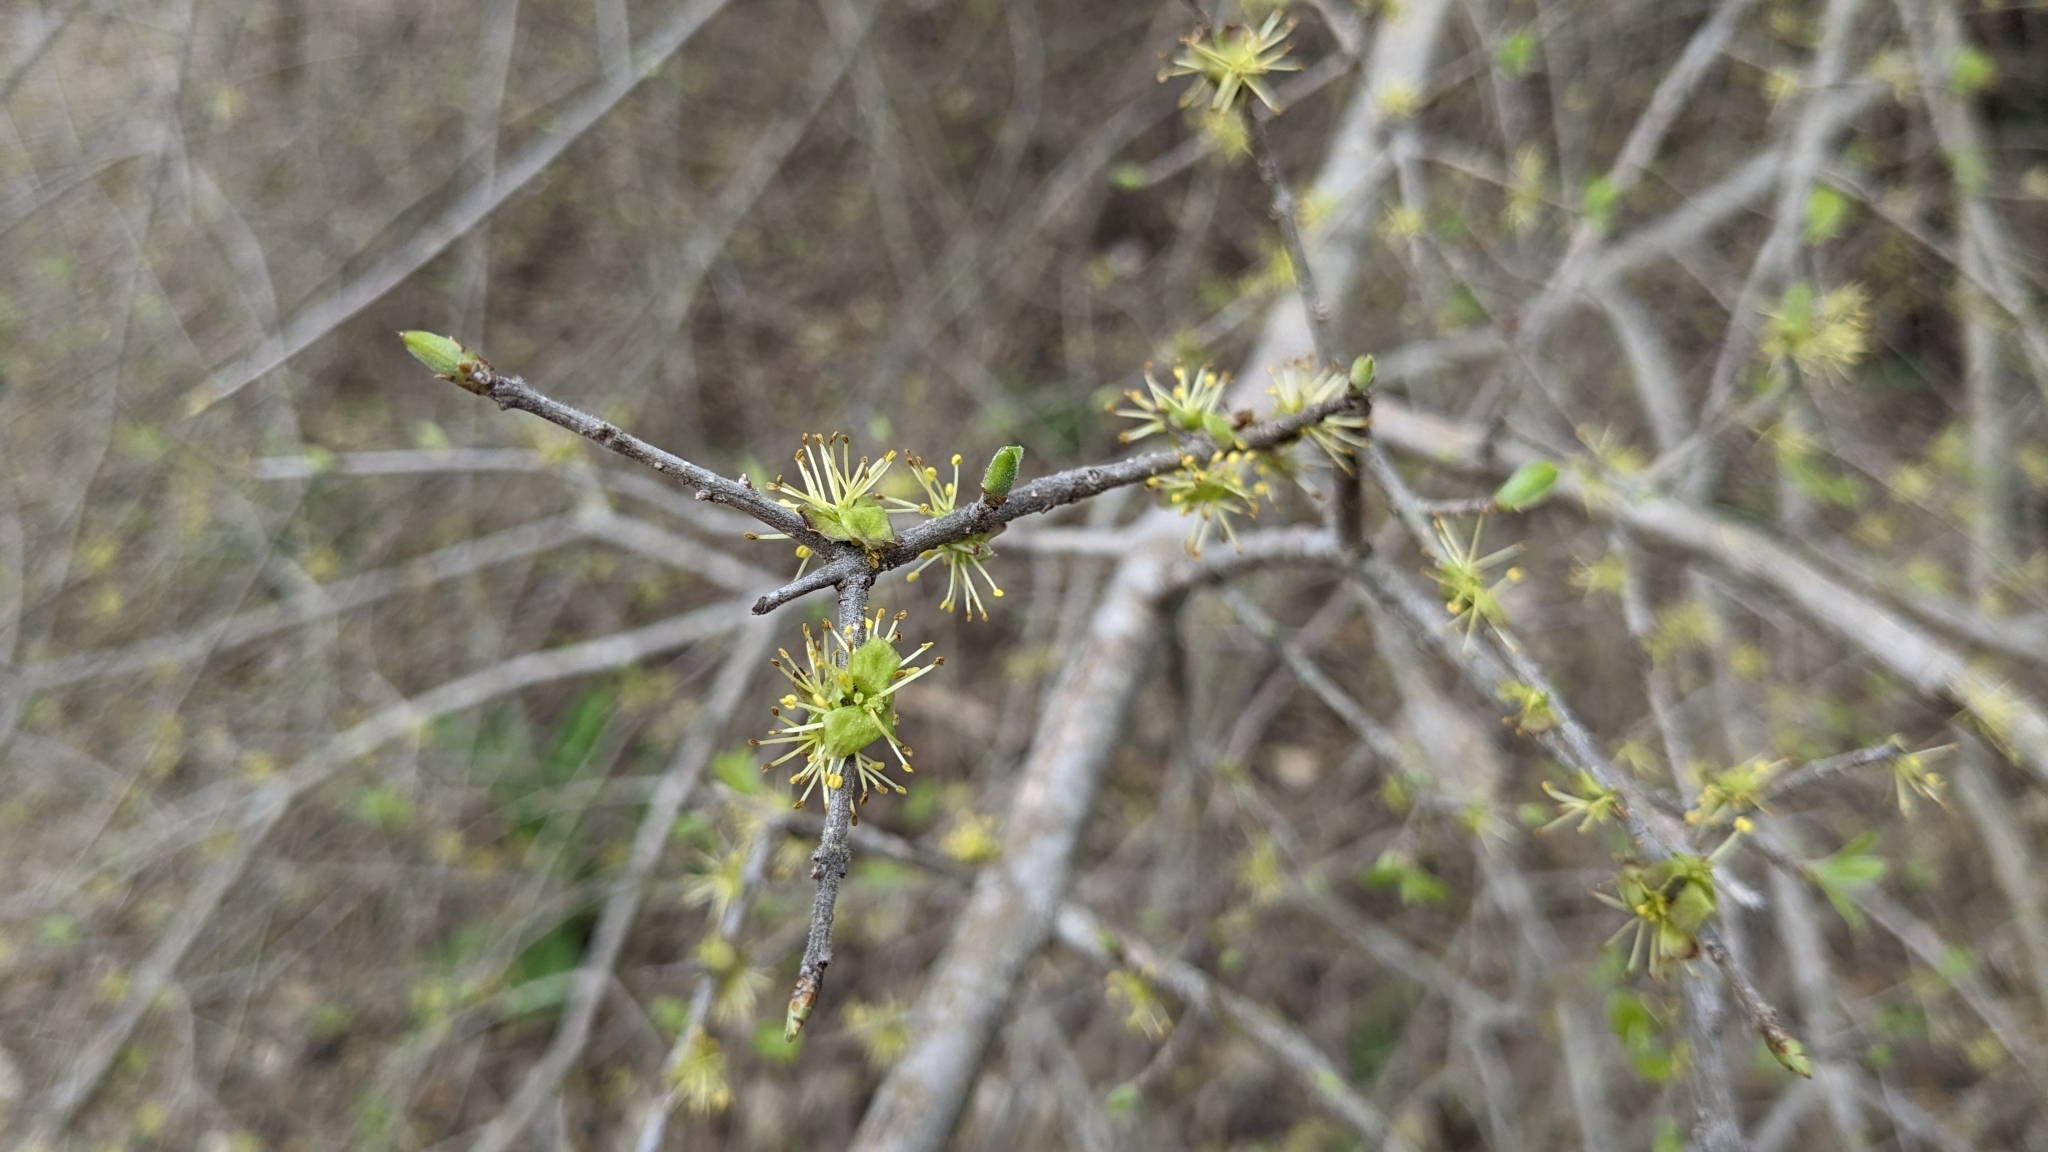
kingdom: Plantae
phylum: Tracheophyta
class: Magnoliopsida
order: Lamiales
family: Oleaceae
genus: Forestiera
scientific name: Forestiera pubescens
